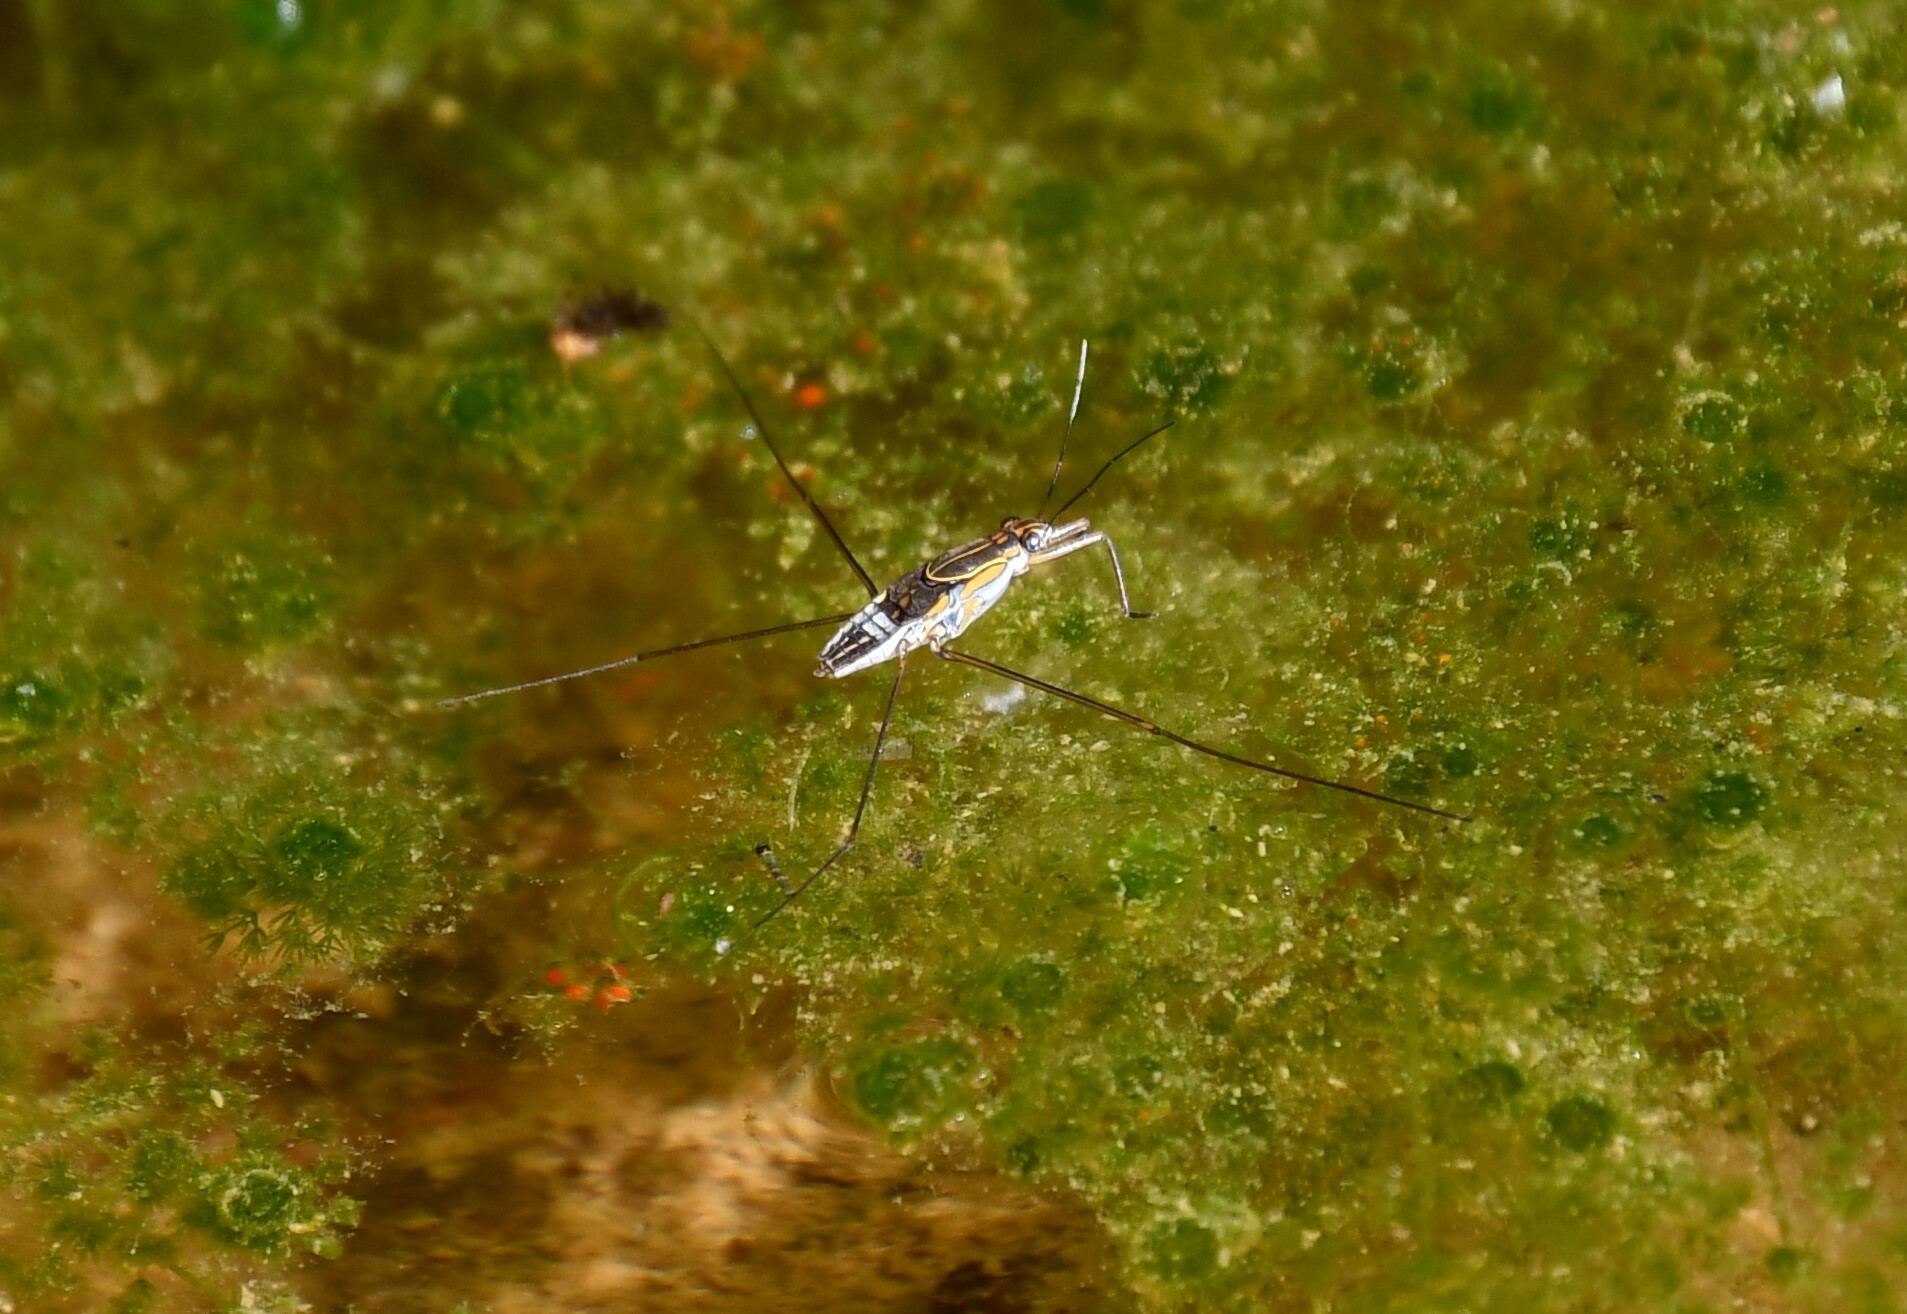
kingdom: Animalia
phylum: Arthropoda
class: Insecta
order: Hemiptera
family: Gerridae
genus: Limnogonus
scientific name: Limnogonus fossarum
